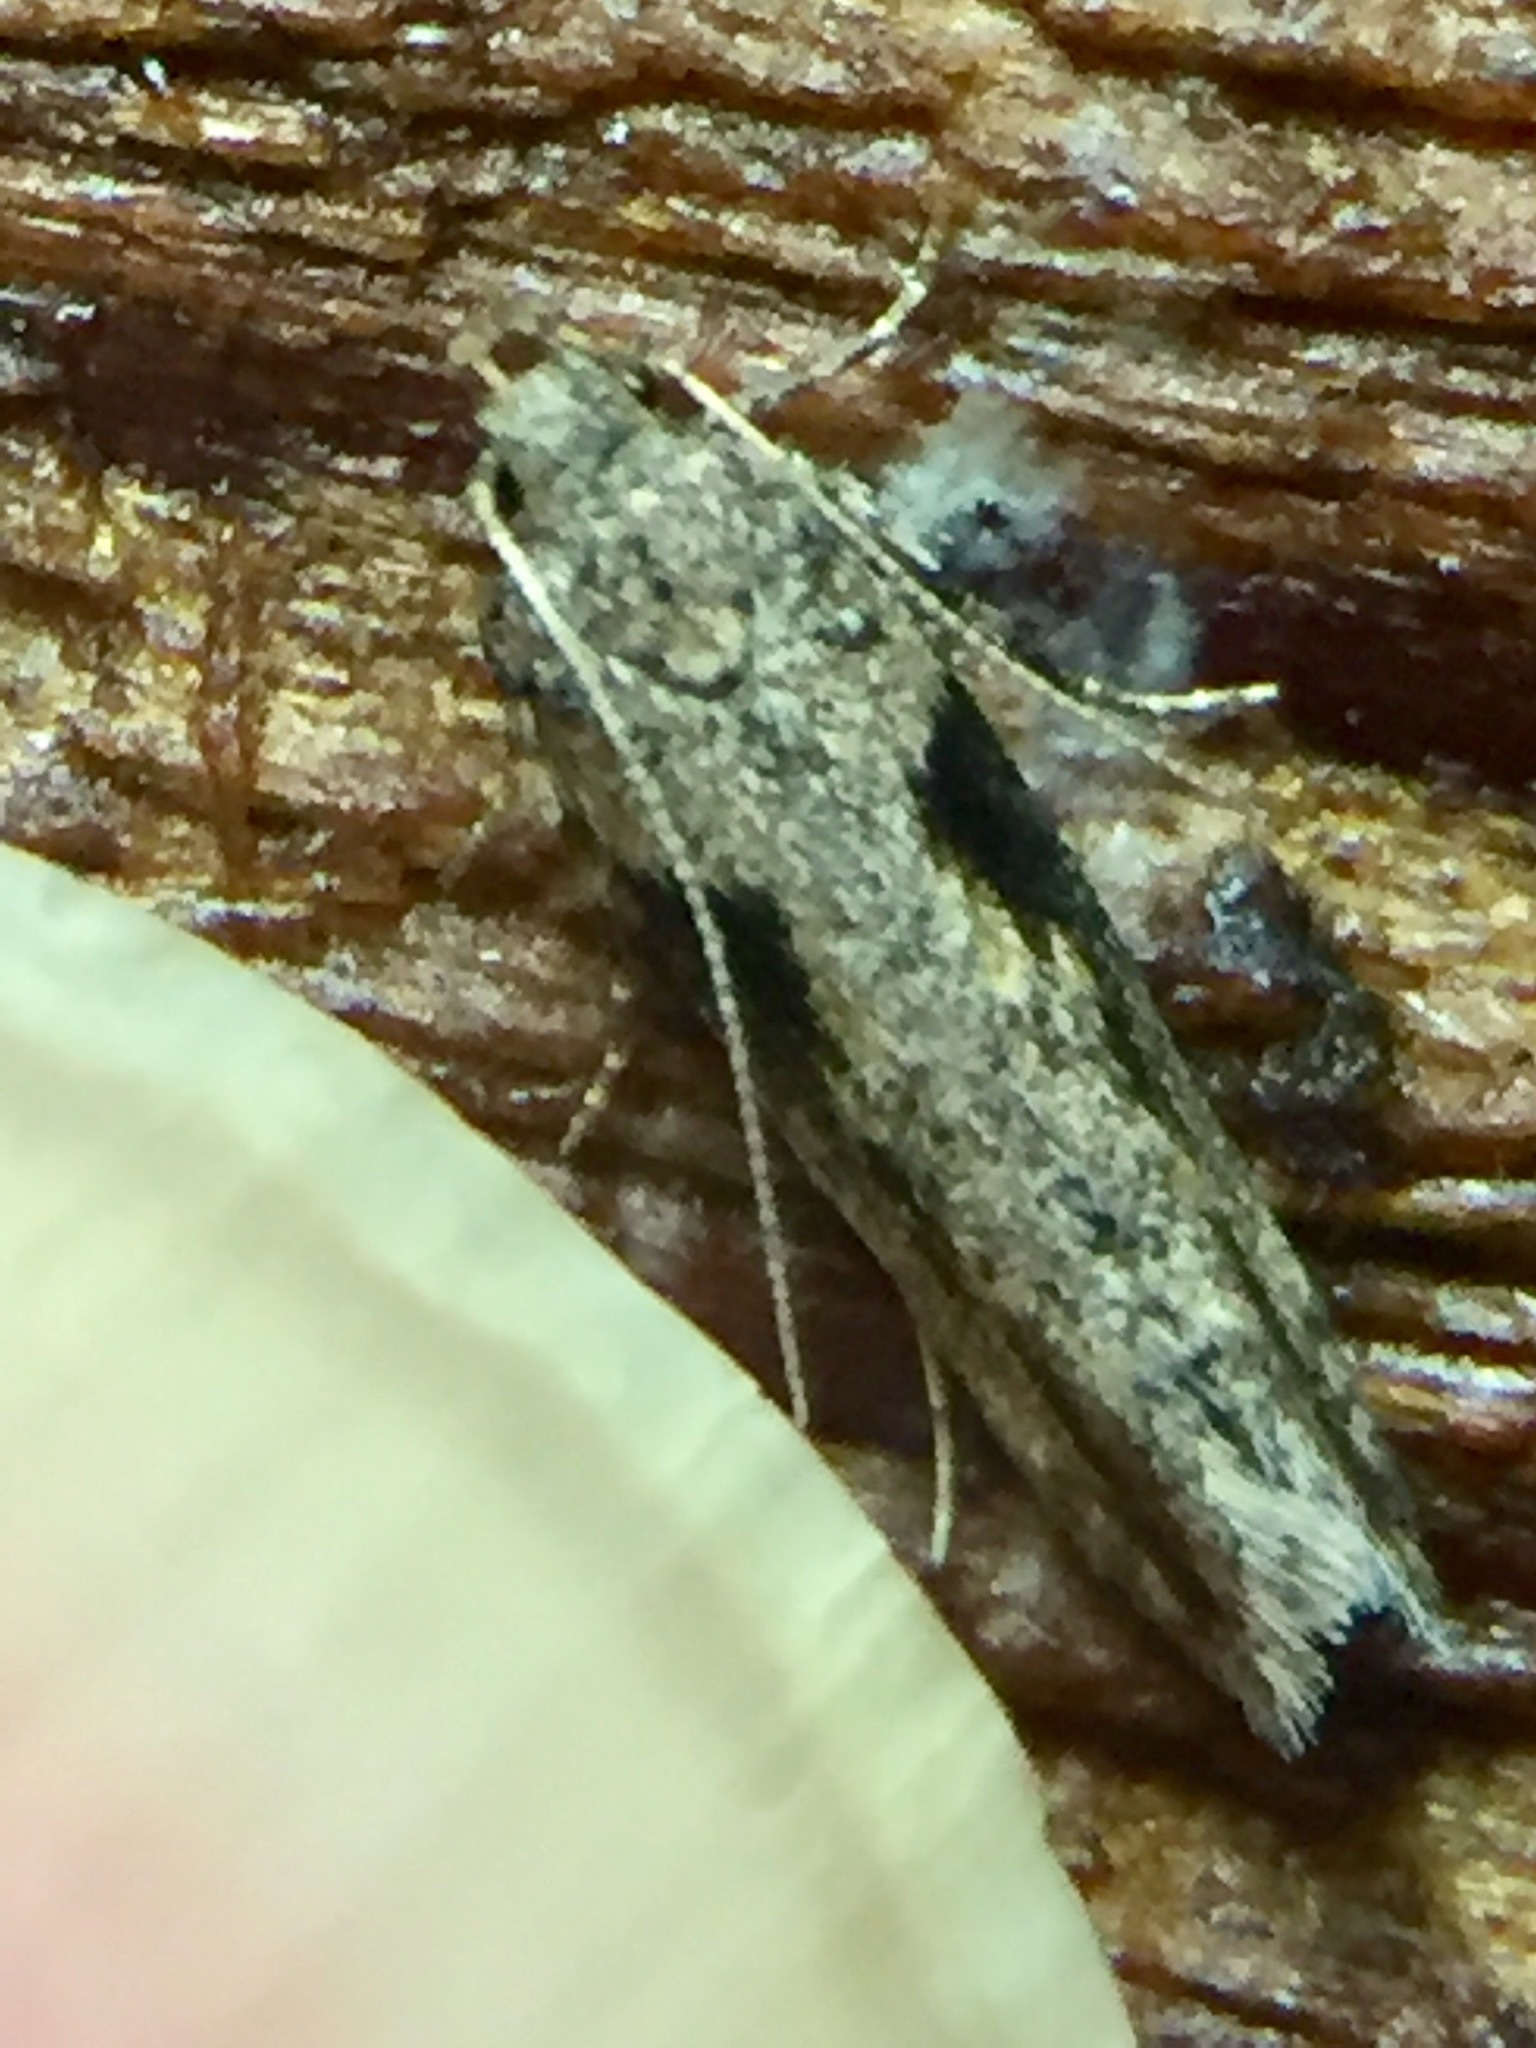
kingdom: Animalia
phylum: Arthropoda
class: Insecta
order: Lepidoptera
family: Gelechiidae
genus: Symmetrischema
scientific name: Symmetrischema tangolias
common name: Moth
